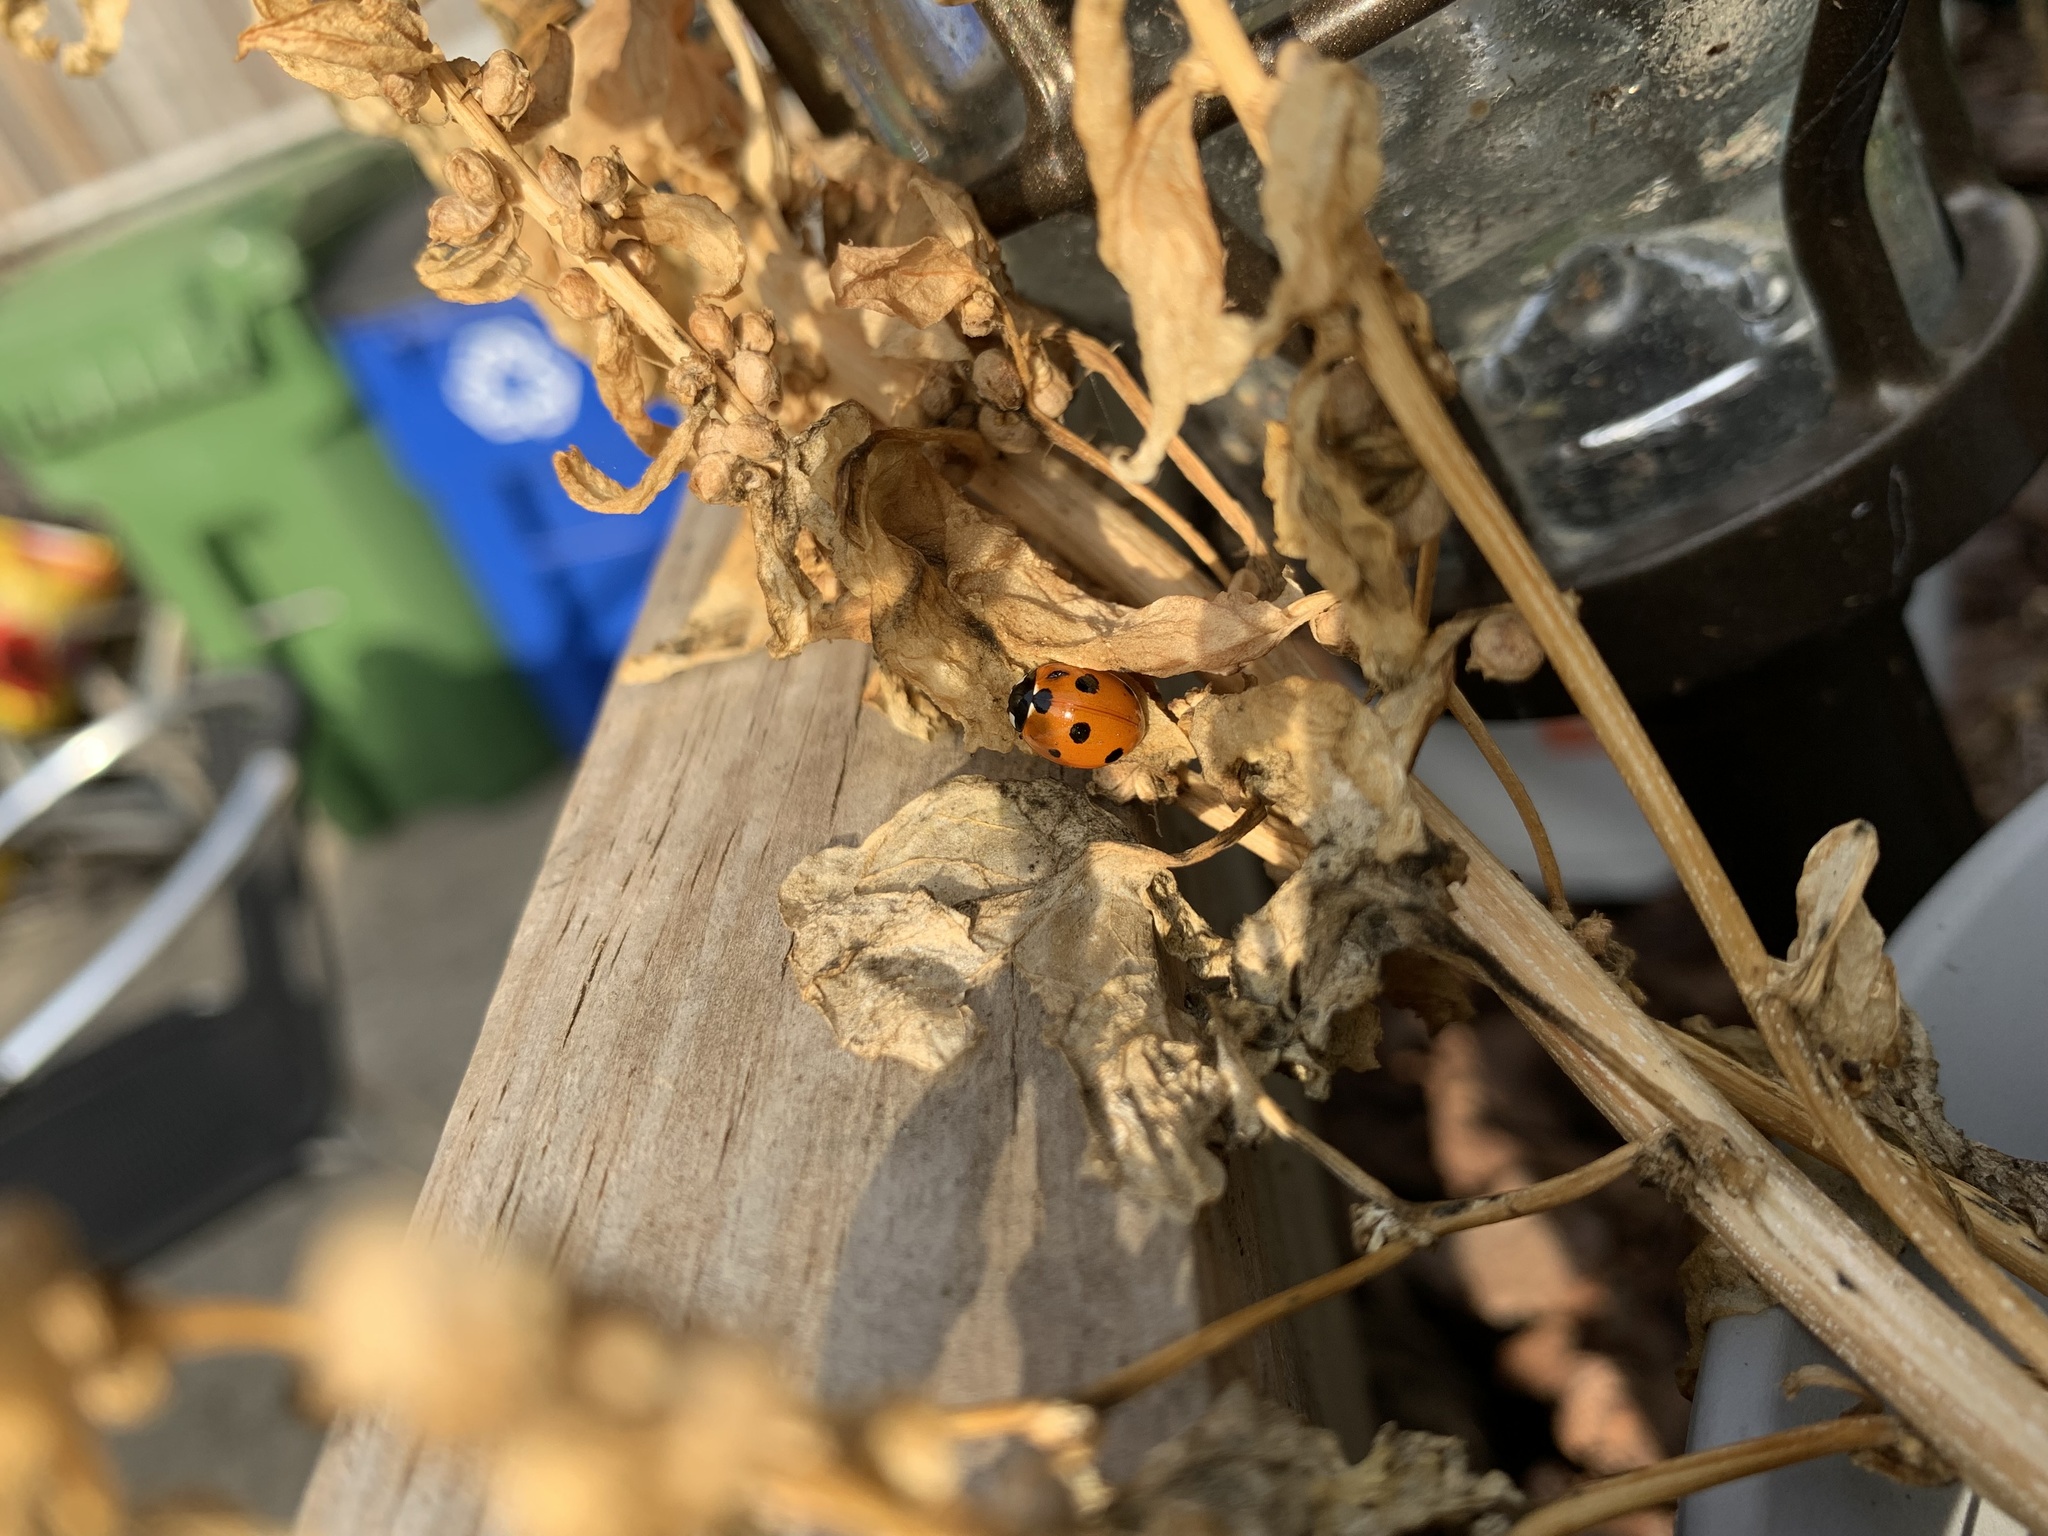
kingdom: Animalia
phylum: Arthropoda
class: Insecta
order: Coleoptera
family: Coccinellidae
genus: Coccinella
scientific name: Coccinella septempunctata
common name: Sevenspotted lady beetle
